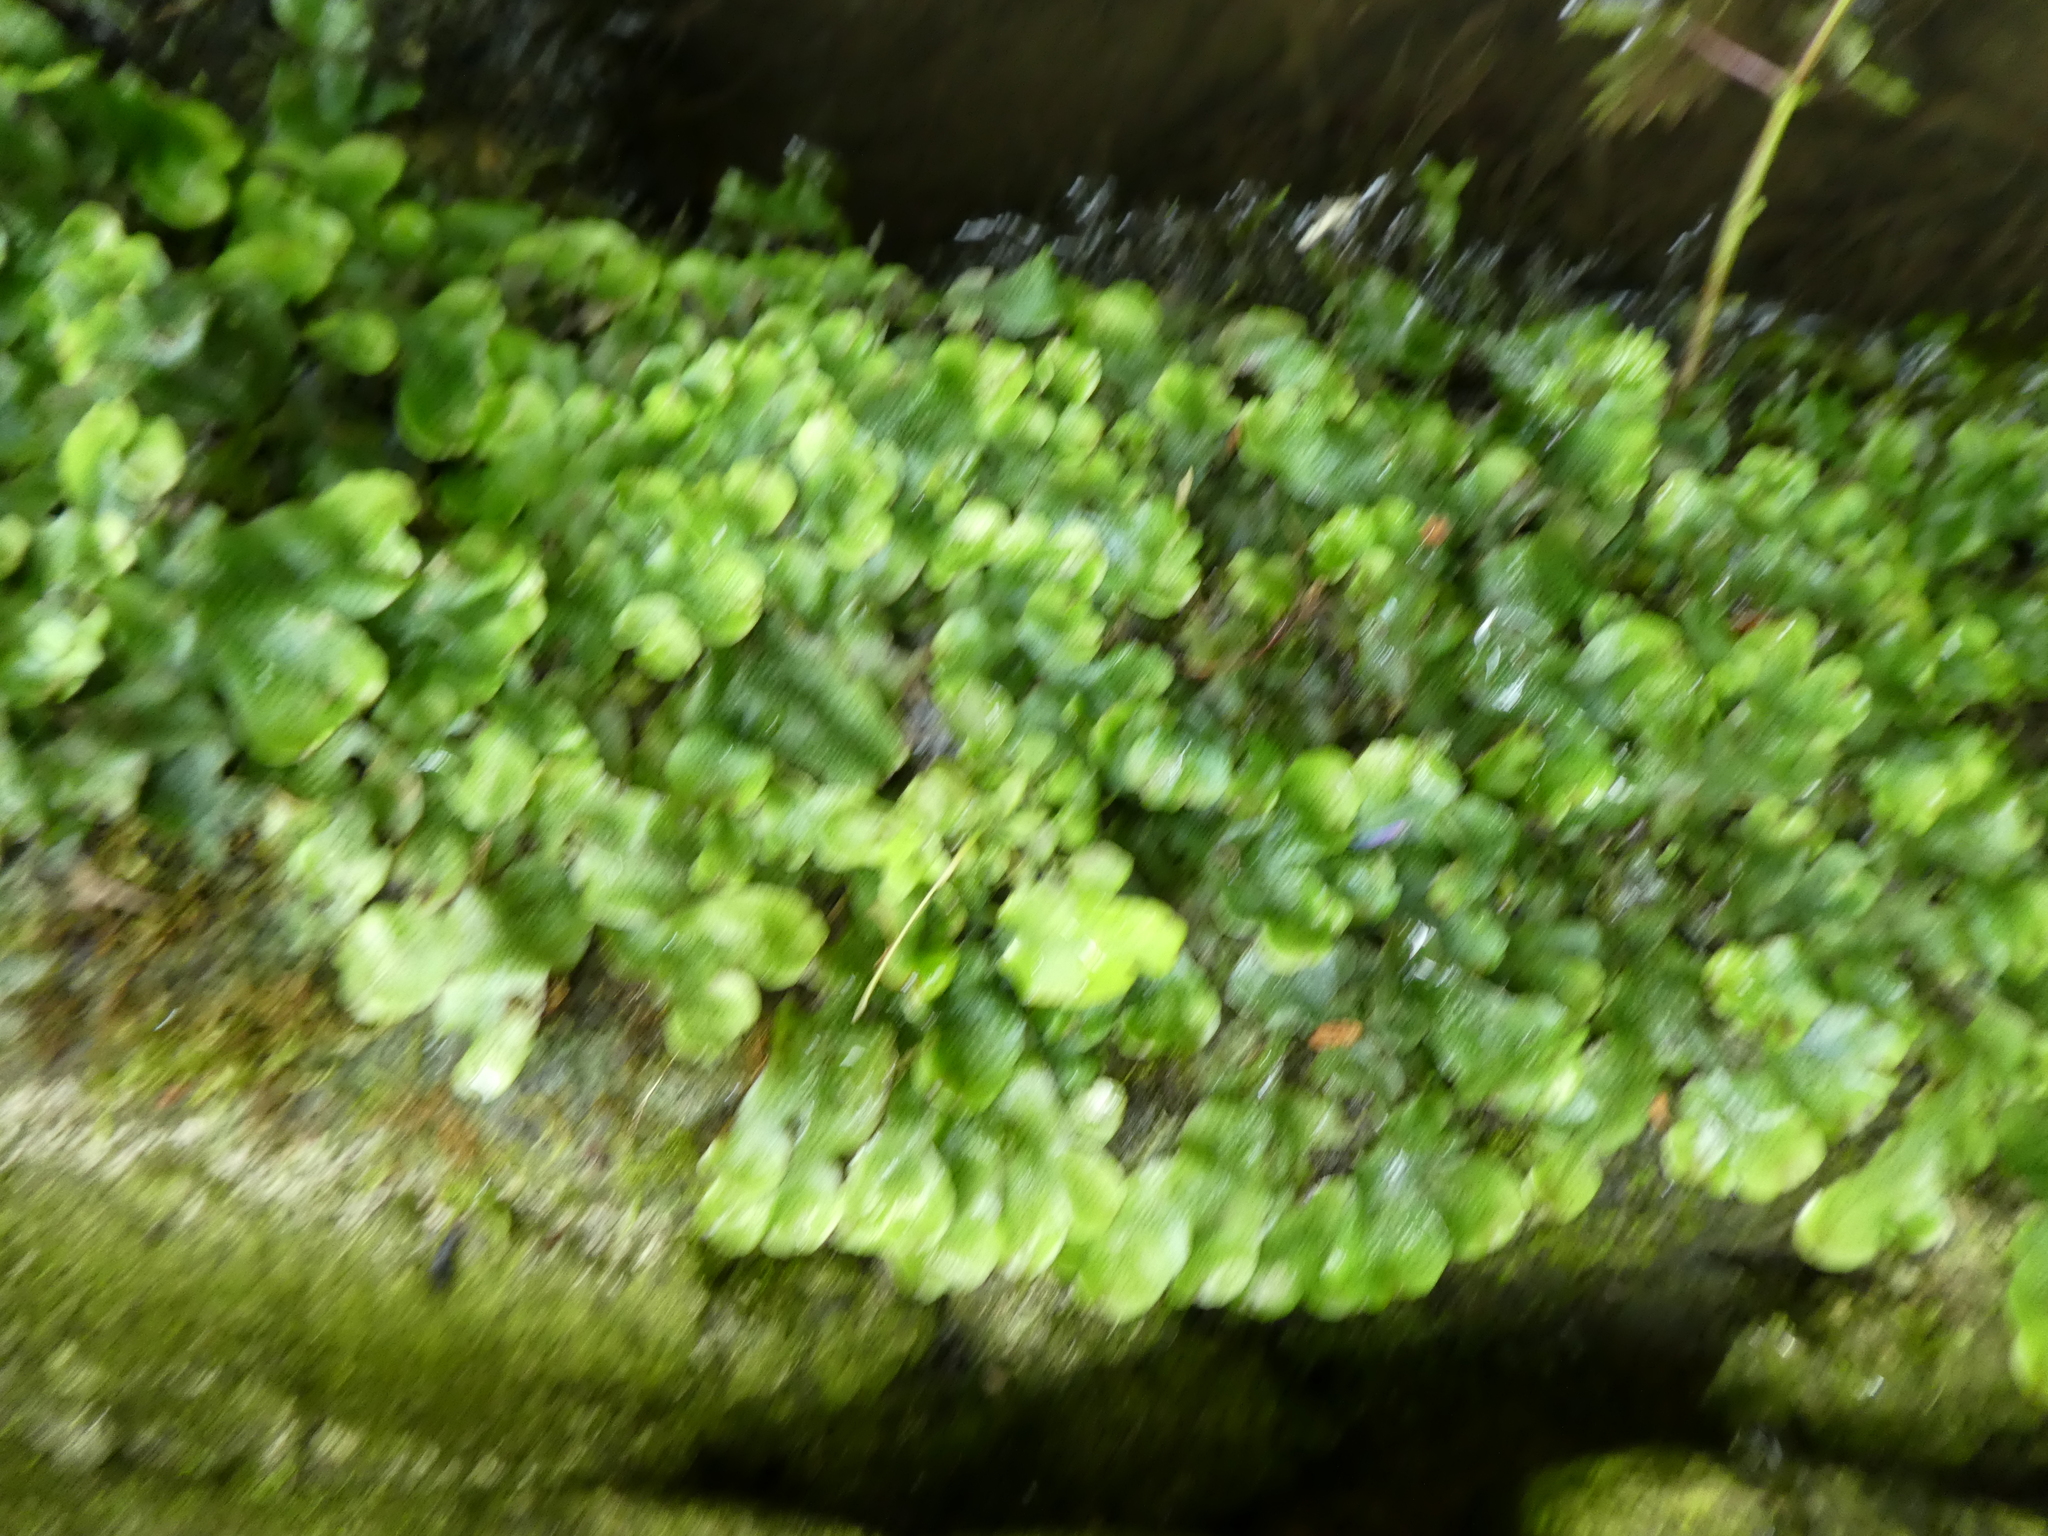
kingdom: Plantae
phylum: Marchantiophyta
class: Marchantiopsida
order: Marchantiales
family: Conocephalaceae
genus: Conocephalum
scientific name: Conocephalum conicum
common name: Great scented liverwort
